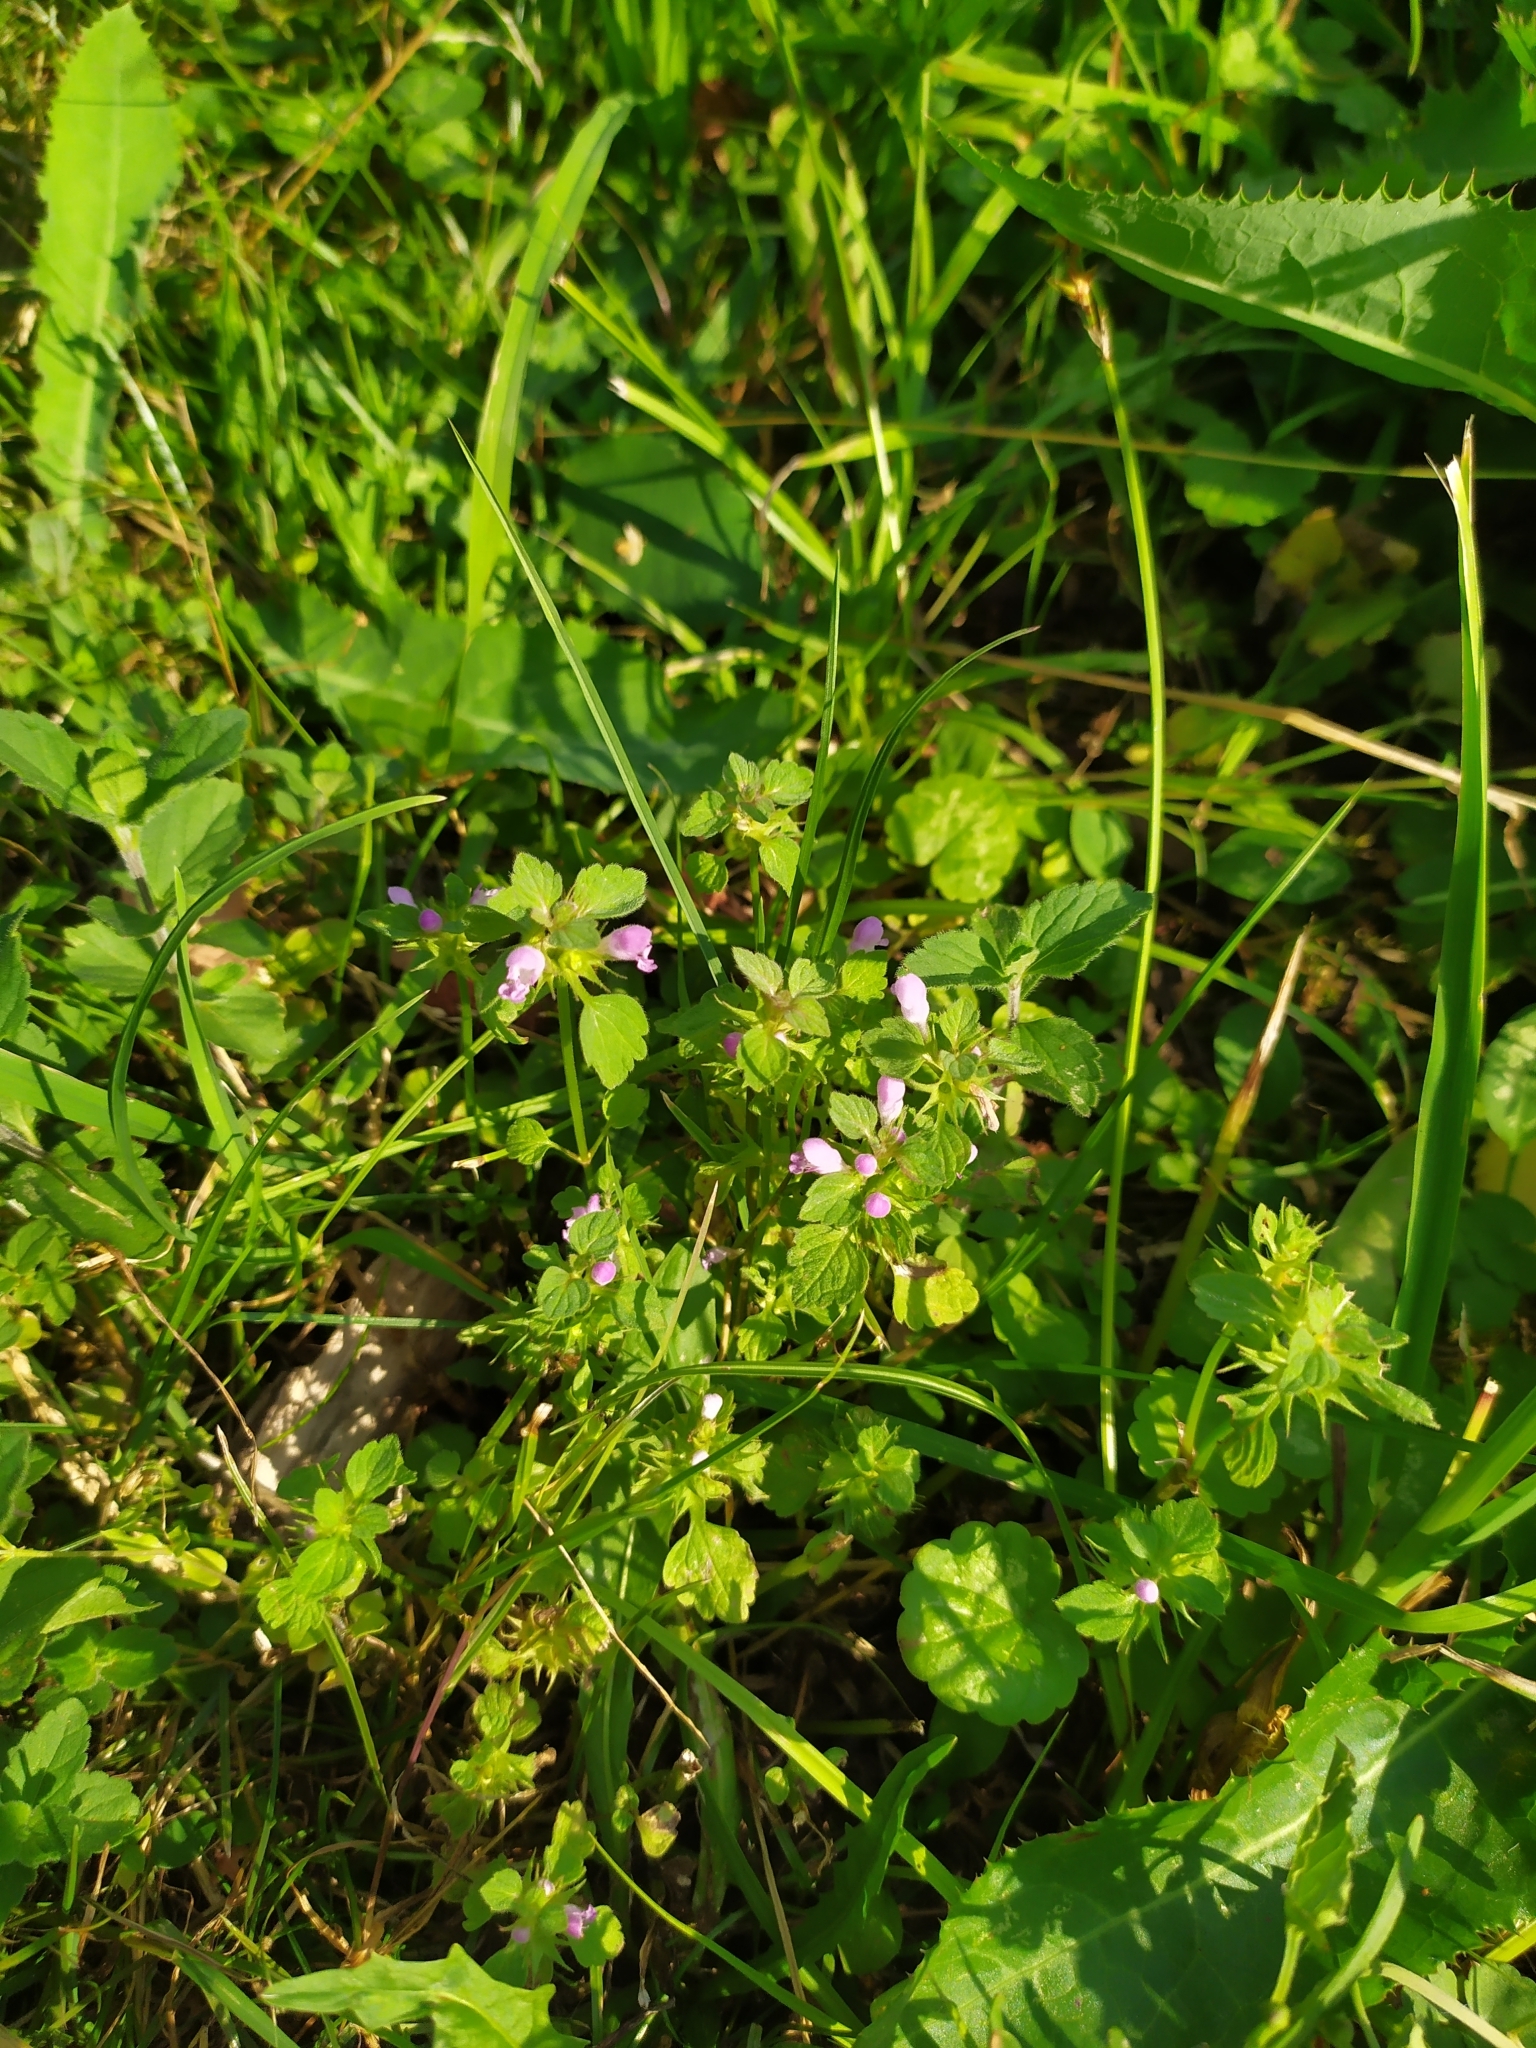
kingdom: Plantae
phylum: Tracheophyta
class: Magnoliopsida
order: Lamiales
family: Lamiaceae
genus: Lamium
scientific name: Lamium purpureum
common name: Red dead-nettle
